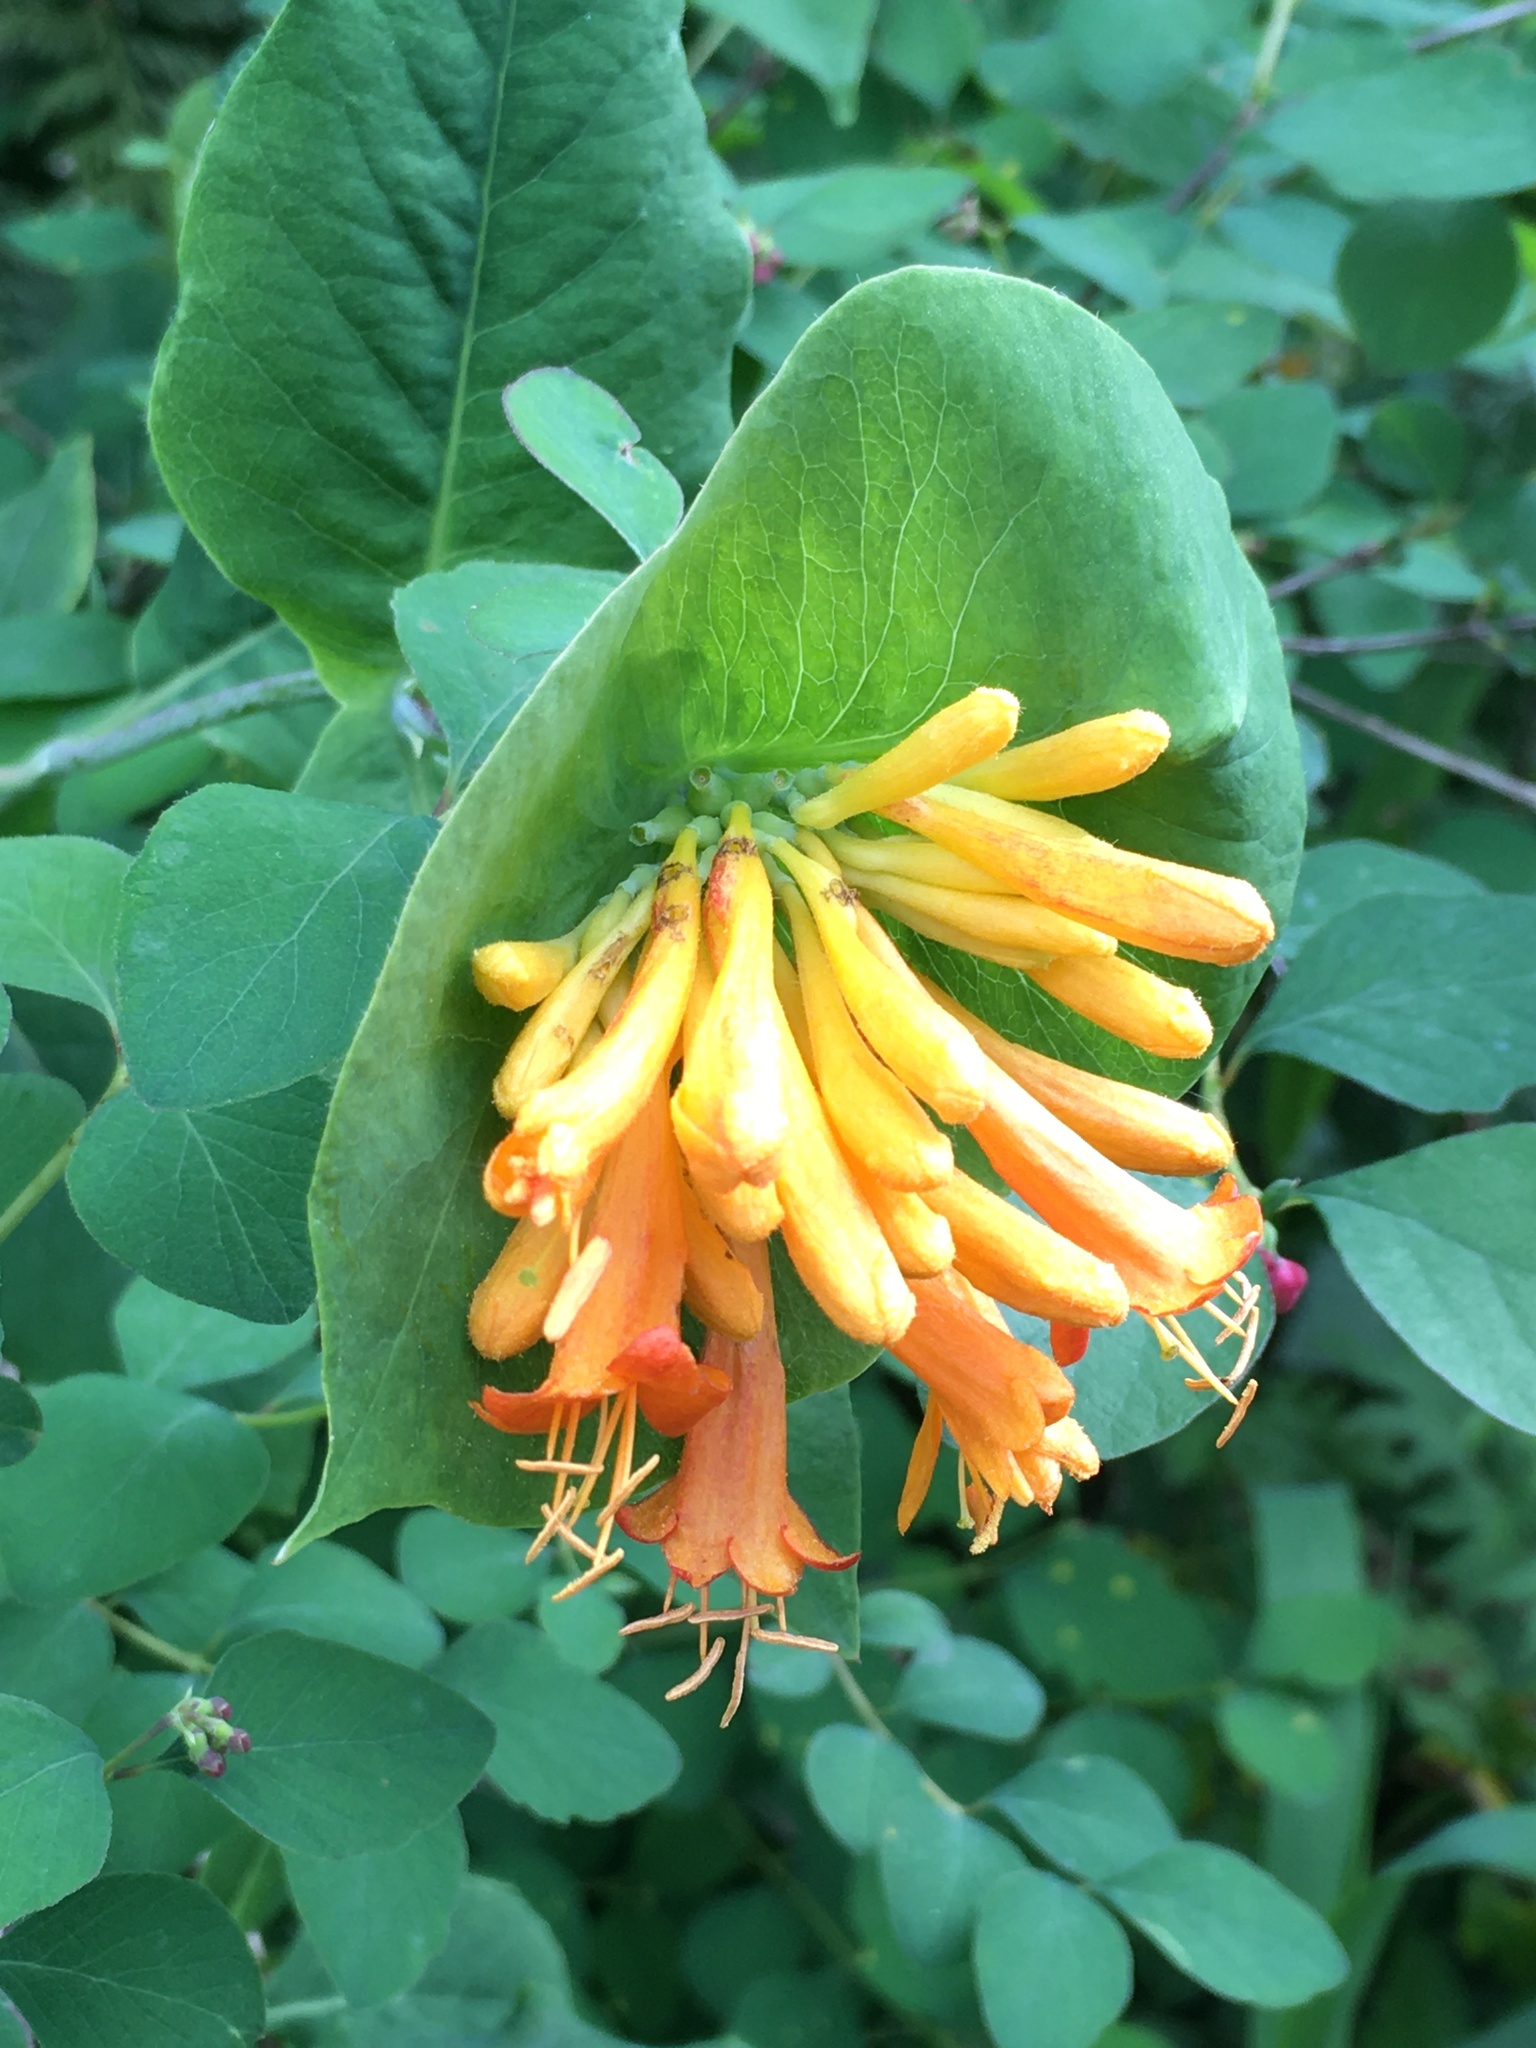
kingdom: Plantae
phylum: Tracheophyta
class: Magnoliopsida
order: Dipsacales
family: Caprifoliaceae
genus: Lonicera
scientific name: Lonicera ciliosa
